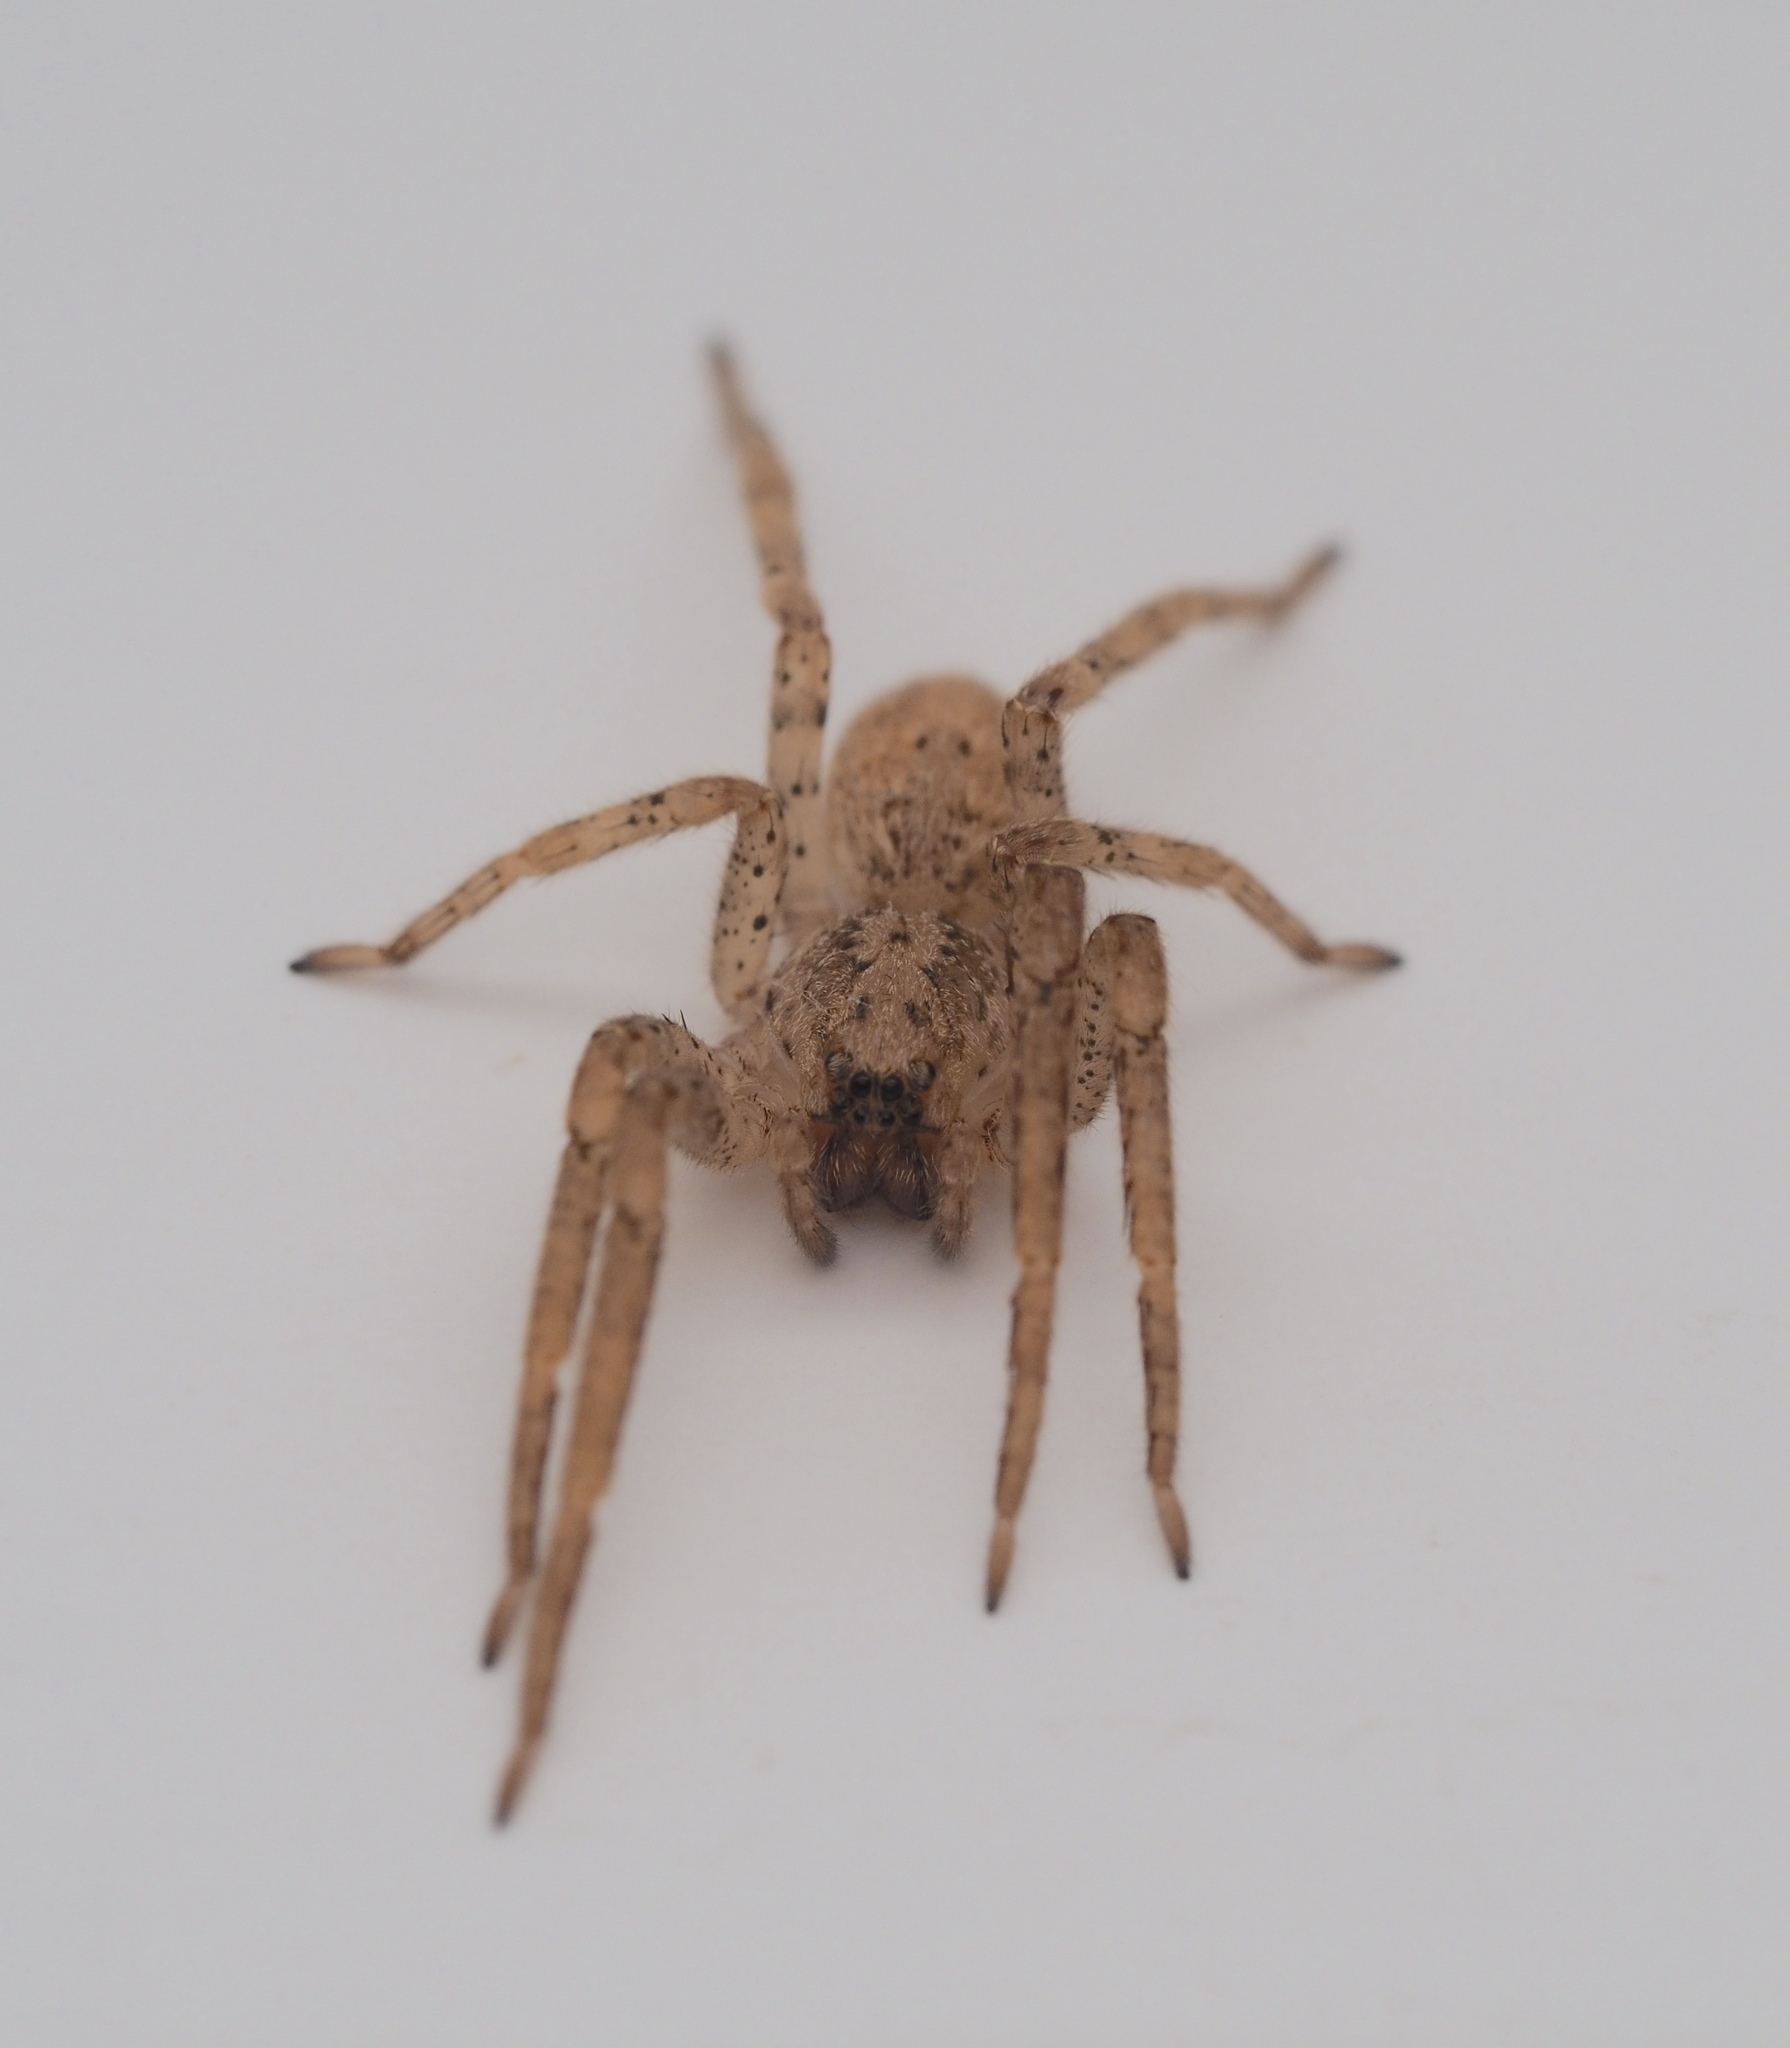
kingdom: Animalia
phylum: Arthropoda
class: Arachnida
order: Araneae
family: Zoropsidae
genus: Zoropsis
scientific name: Zoropsis spinimana
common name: Zoropsid spider
